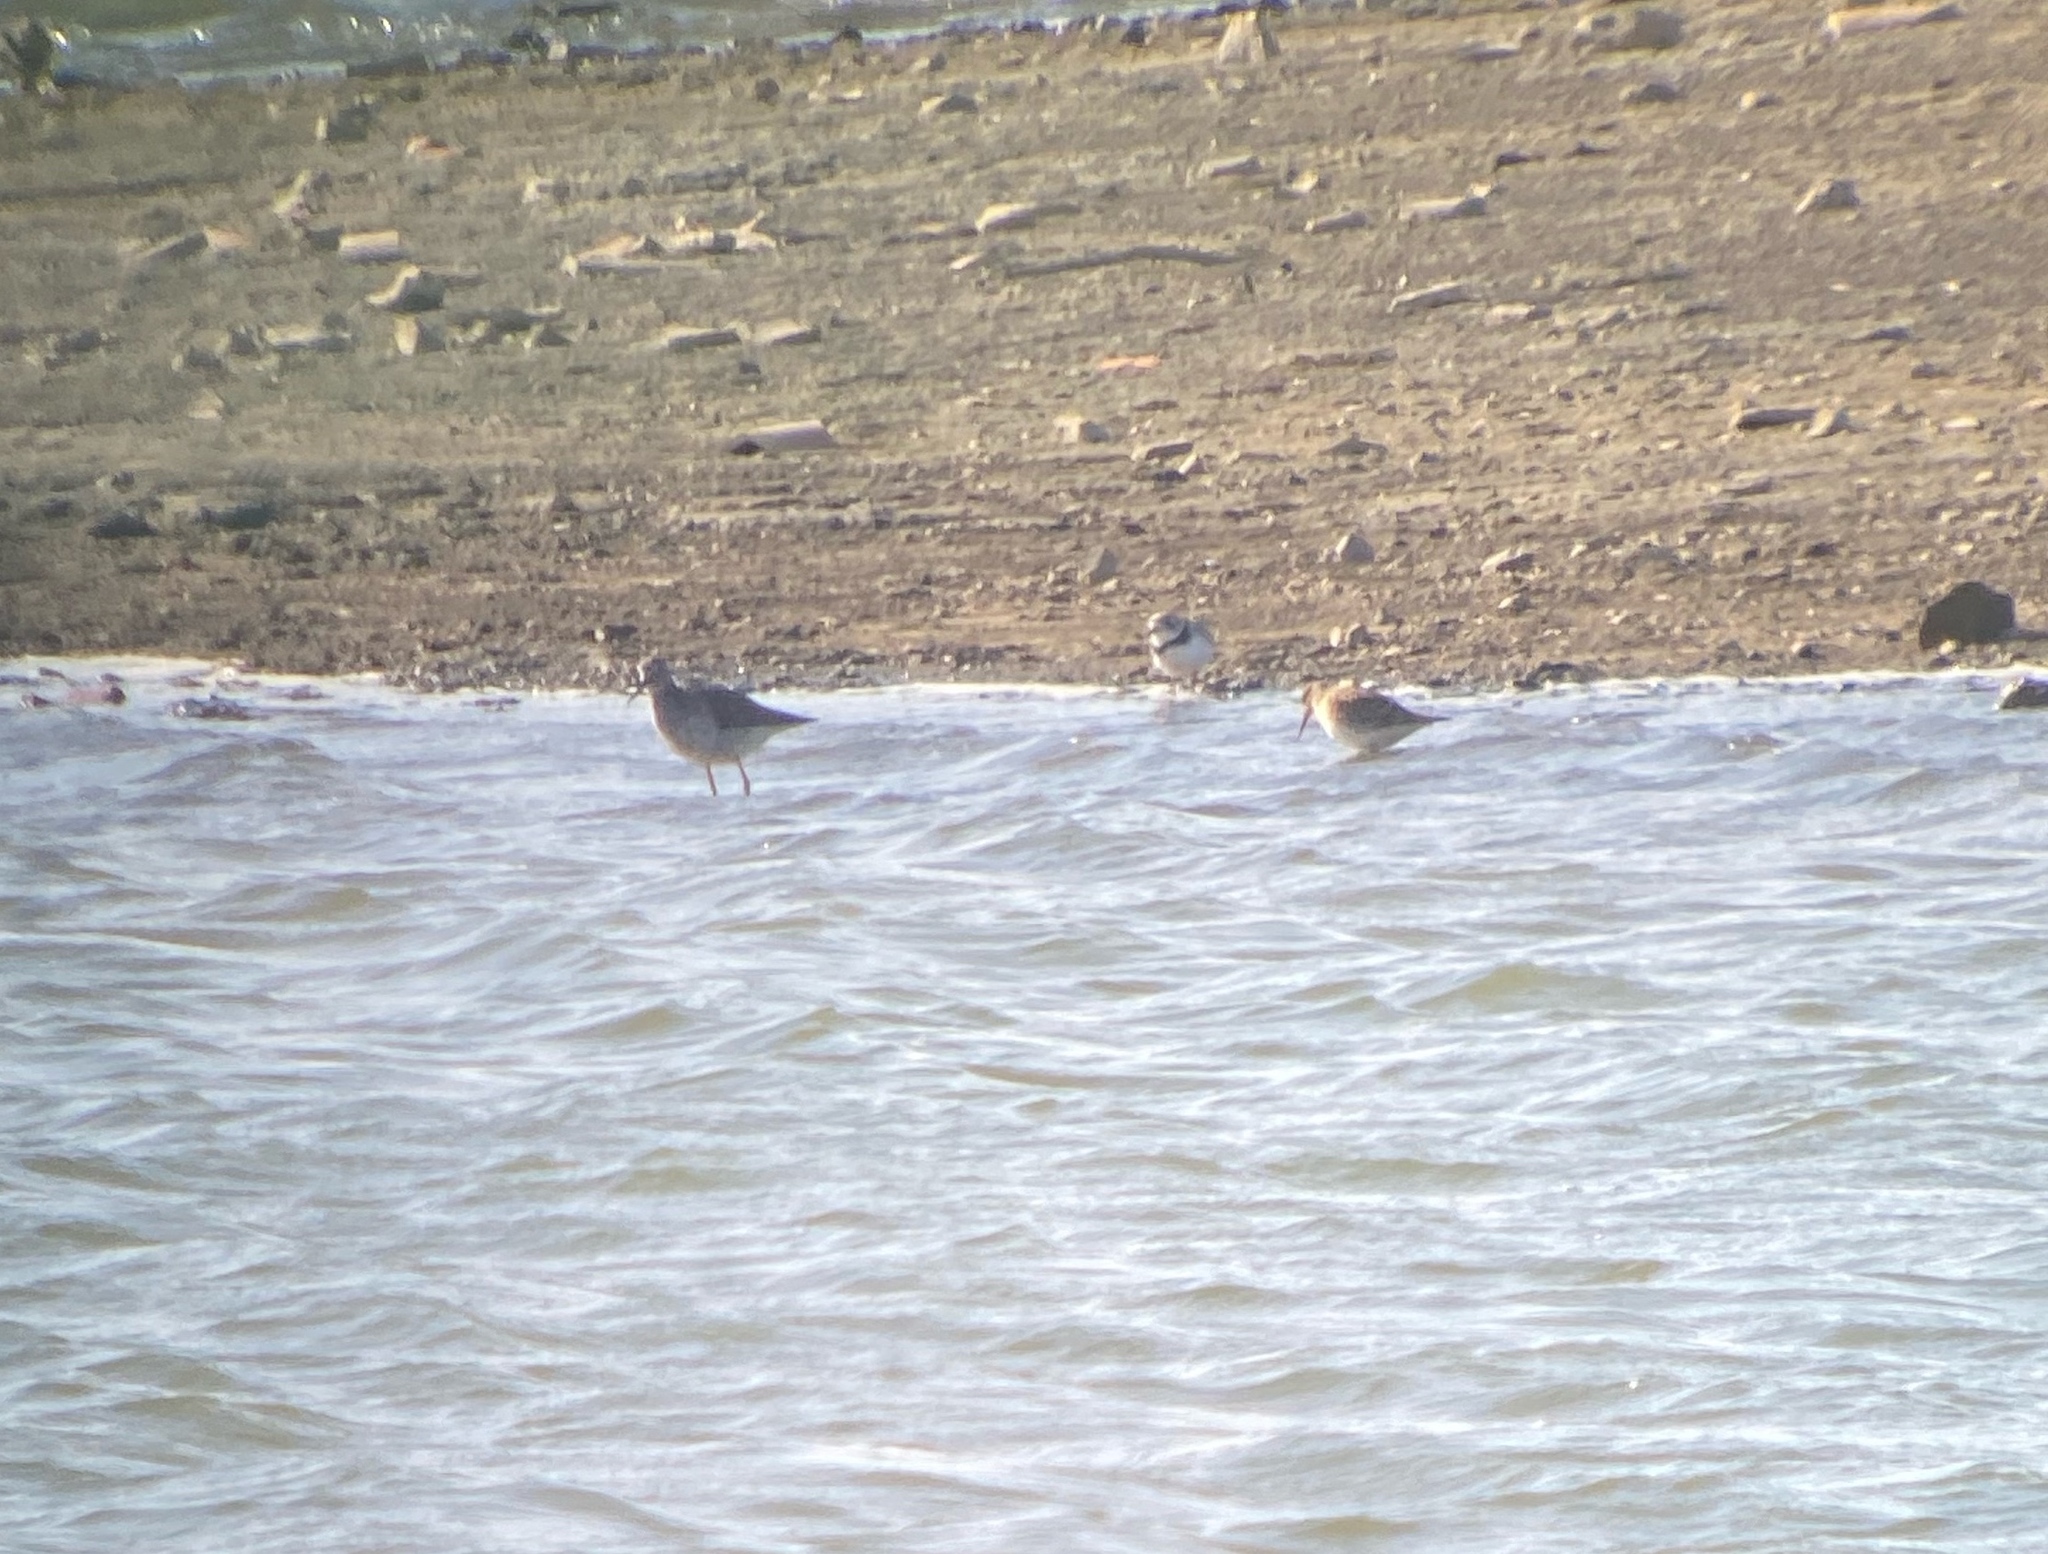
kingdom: Animalia
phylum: Chordata
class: Aves
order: Charadriiformes
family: Charadriidae
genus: Charadrius
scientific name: Charadrius melodus
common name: Piping plover
